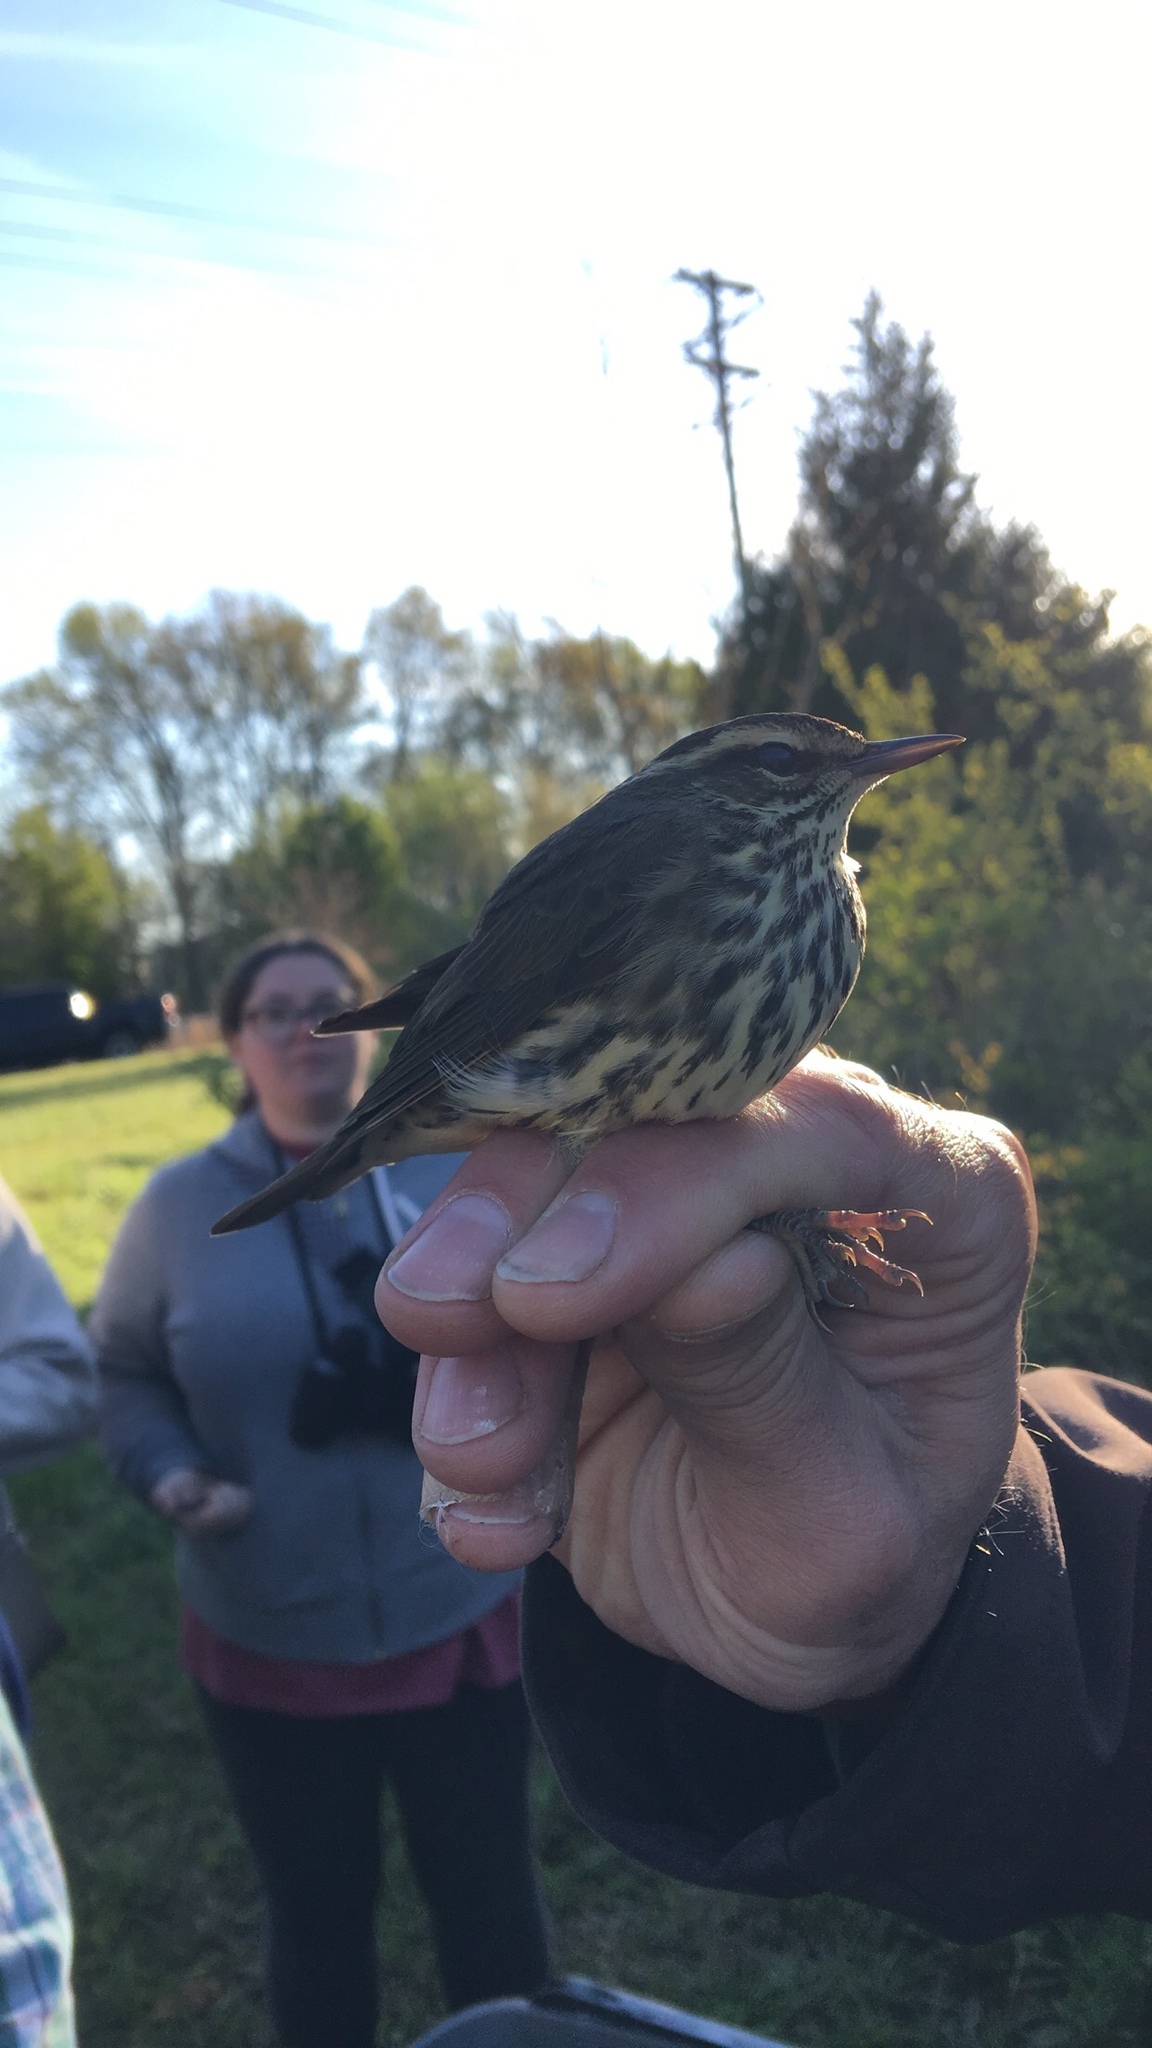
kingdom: Animalia
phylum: Chordata
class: Aves
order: Passeriformes
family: Parulidae
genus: Parkesia
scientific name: Parkesia noveboracensis
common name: Northern waterthrush
